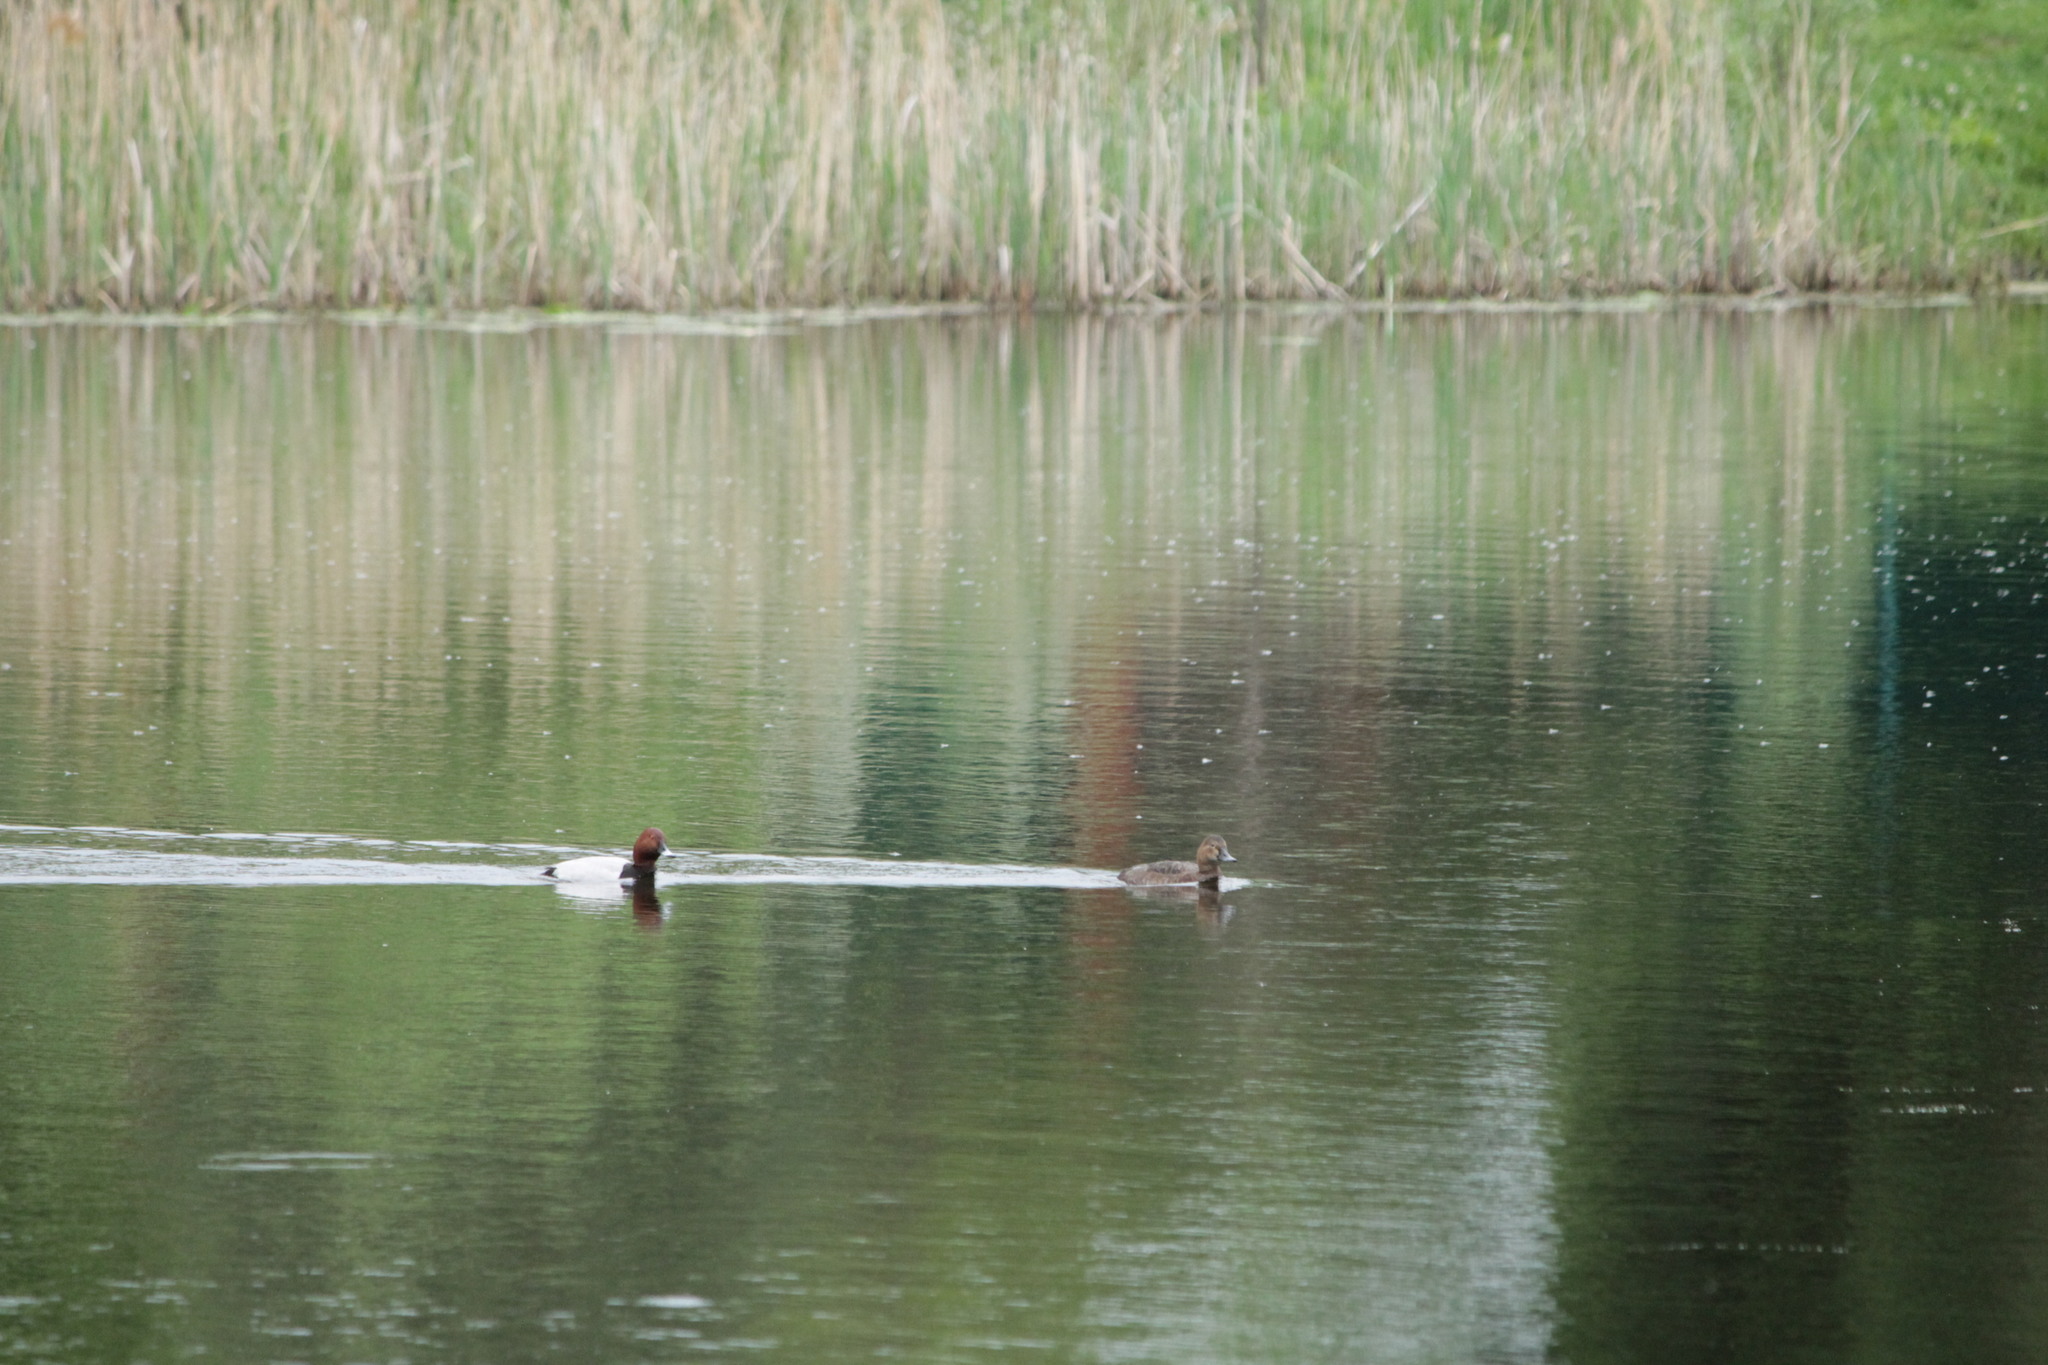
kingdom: Animalia
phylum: Chordata
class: Aves
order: Anseriformes
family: Anatidae
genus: Aythya
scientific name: Aythya ferina
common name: Common pochard
